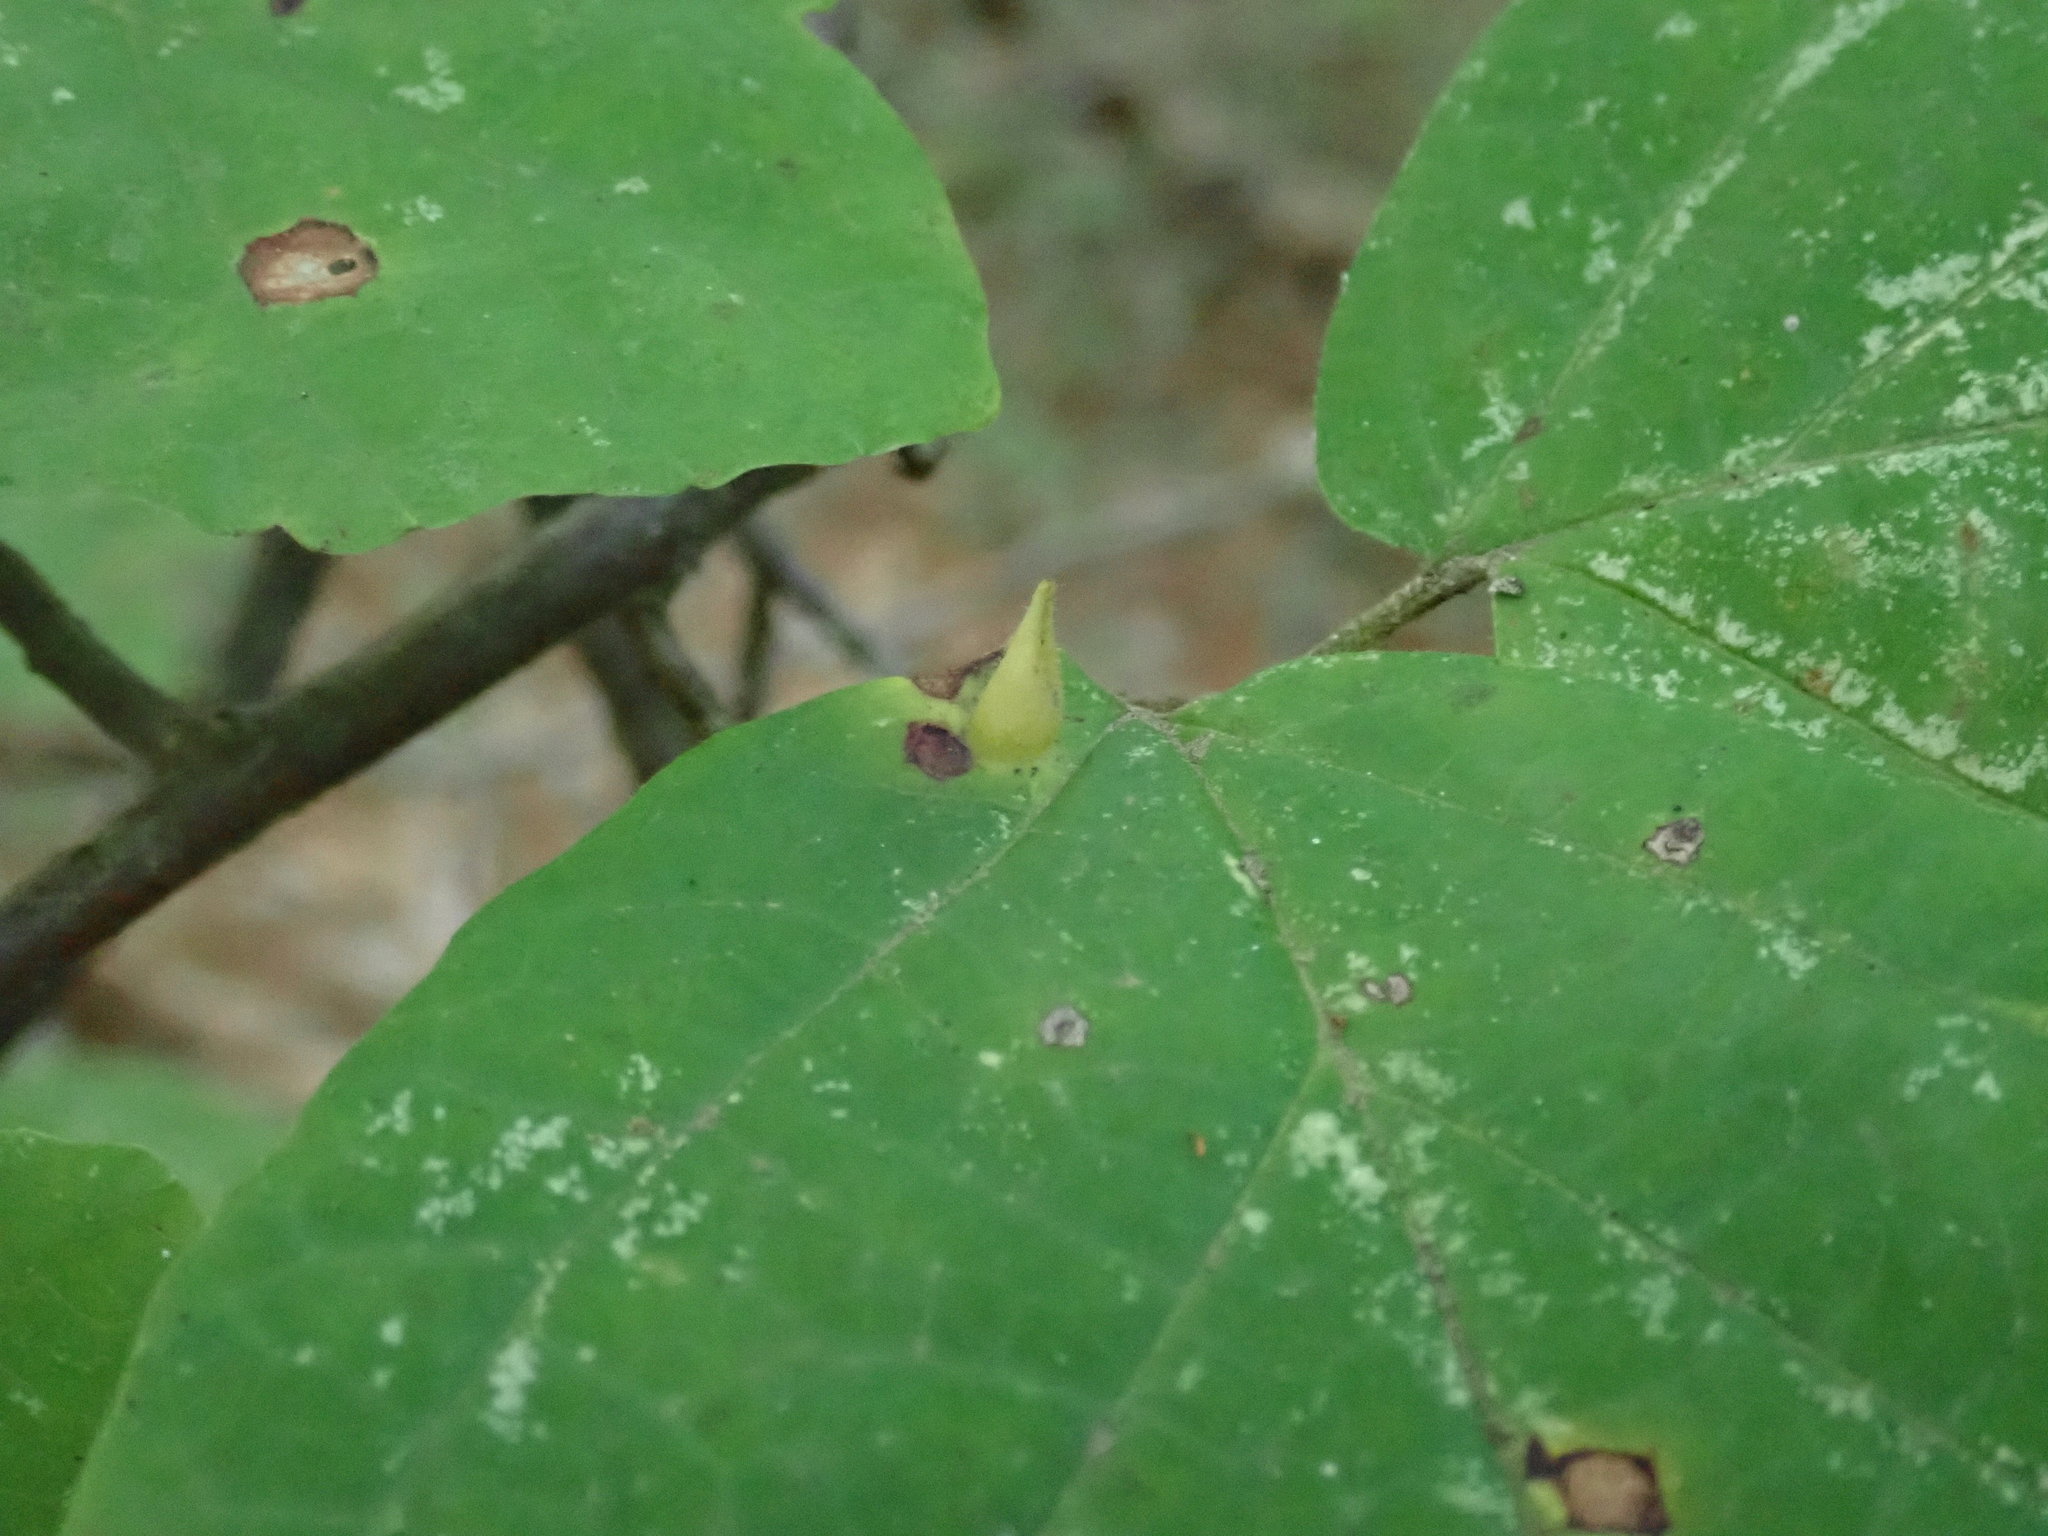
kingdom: Animalia
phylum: Arthropoda
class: Insecta
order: Hemiptera
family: Aphididae
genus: Hormaphis
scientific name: Hormaphis hamamelidis
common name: Witch-hazel cone gall aphid
